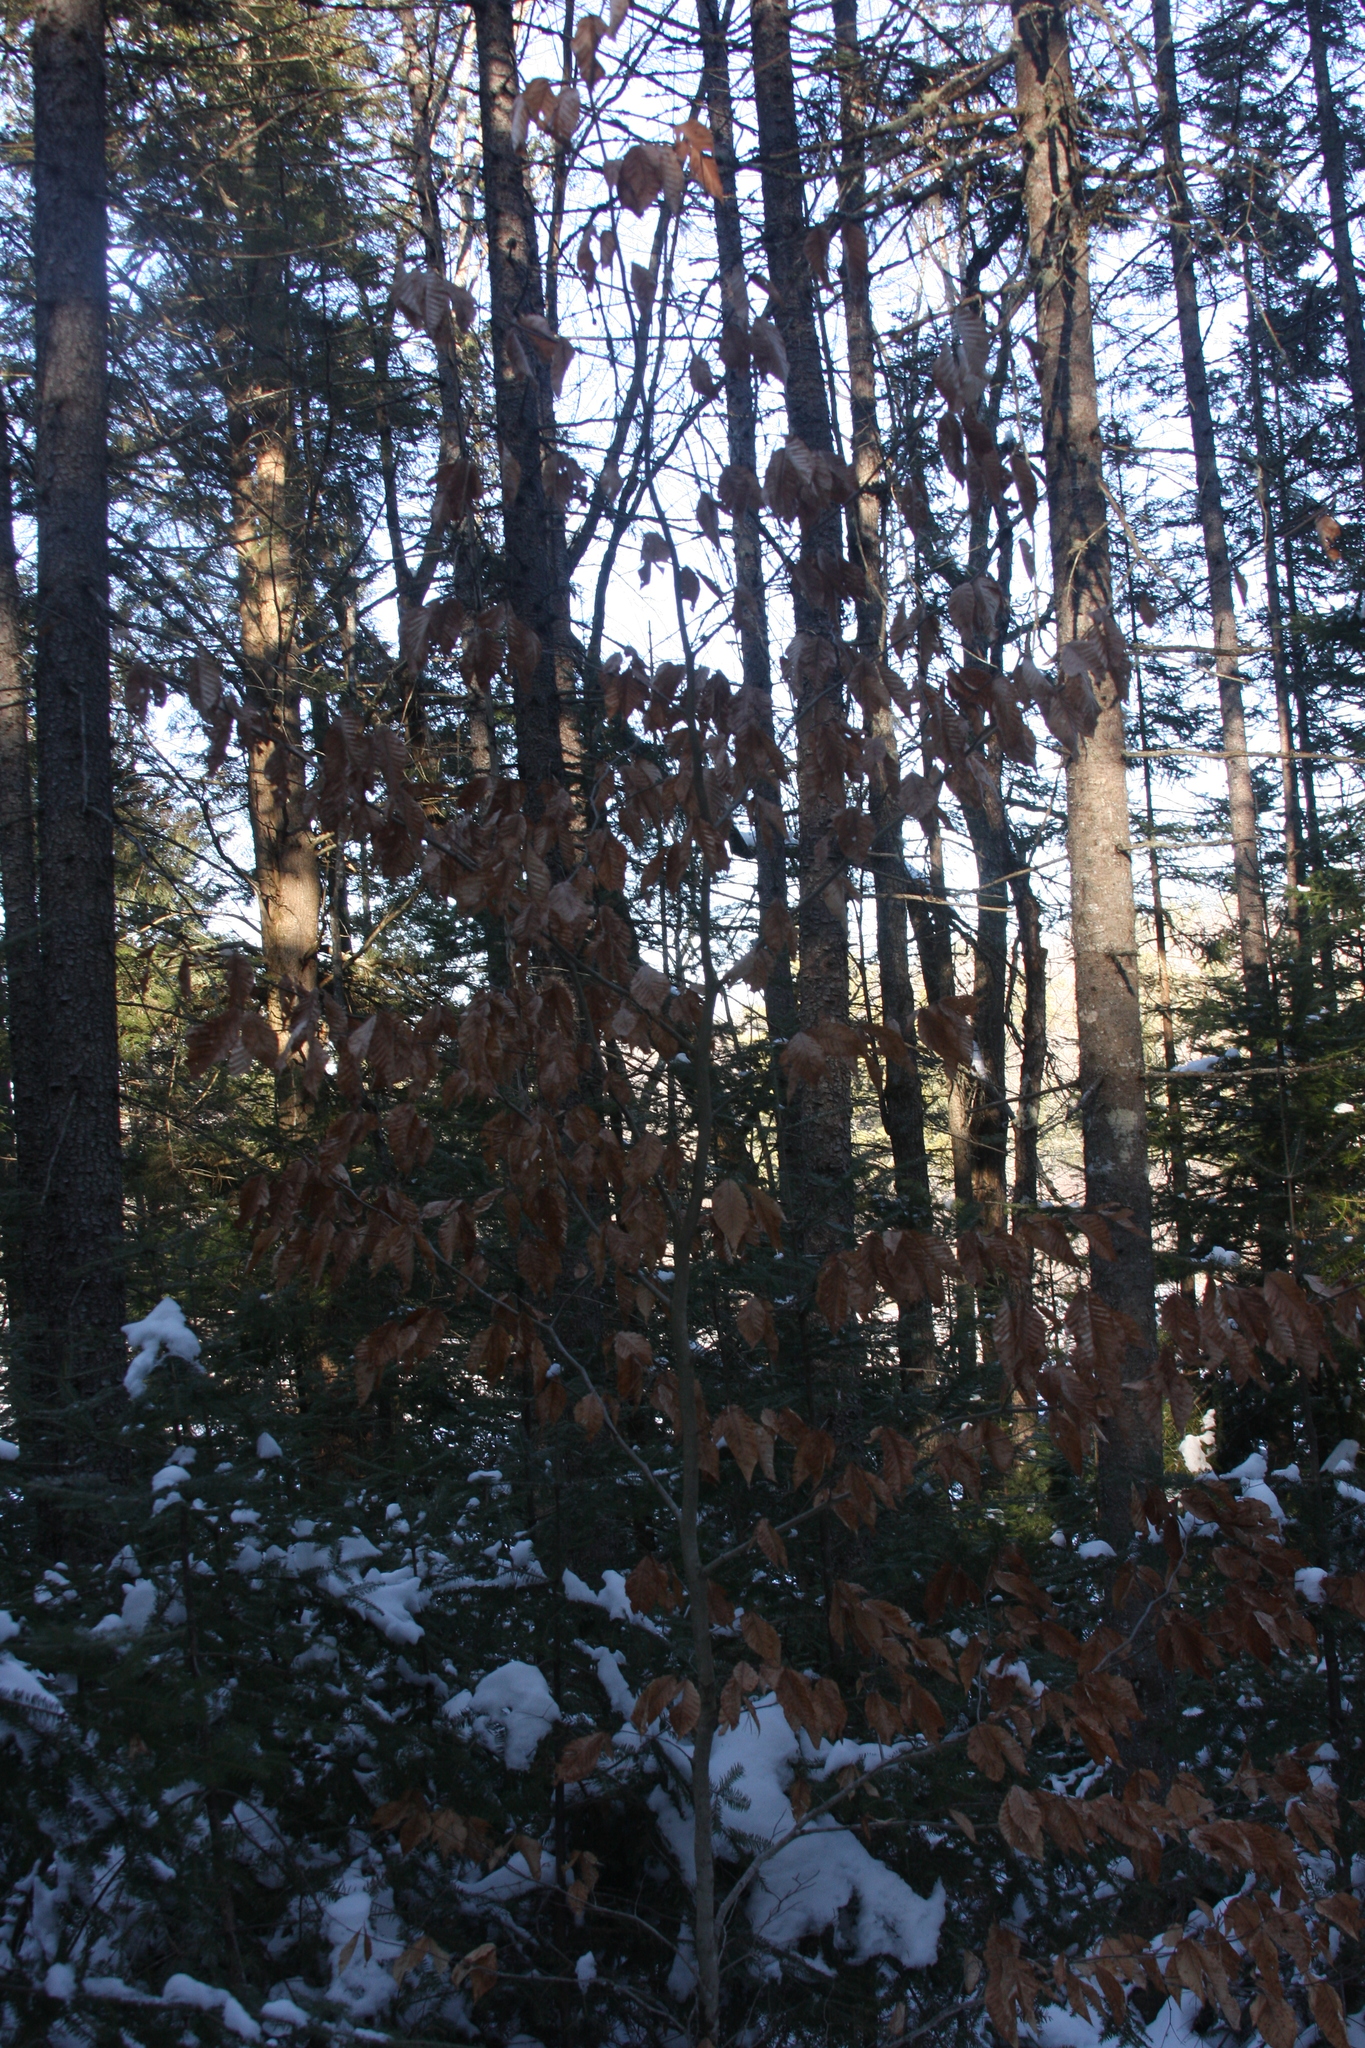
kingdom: Plantae
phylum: Tracheophyta
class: Magnoliopsida
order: Fagales
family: Fagaceae
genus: Fagus
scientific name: Fagus grandifolia
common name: American beech
